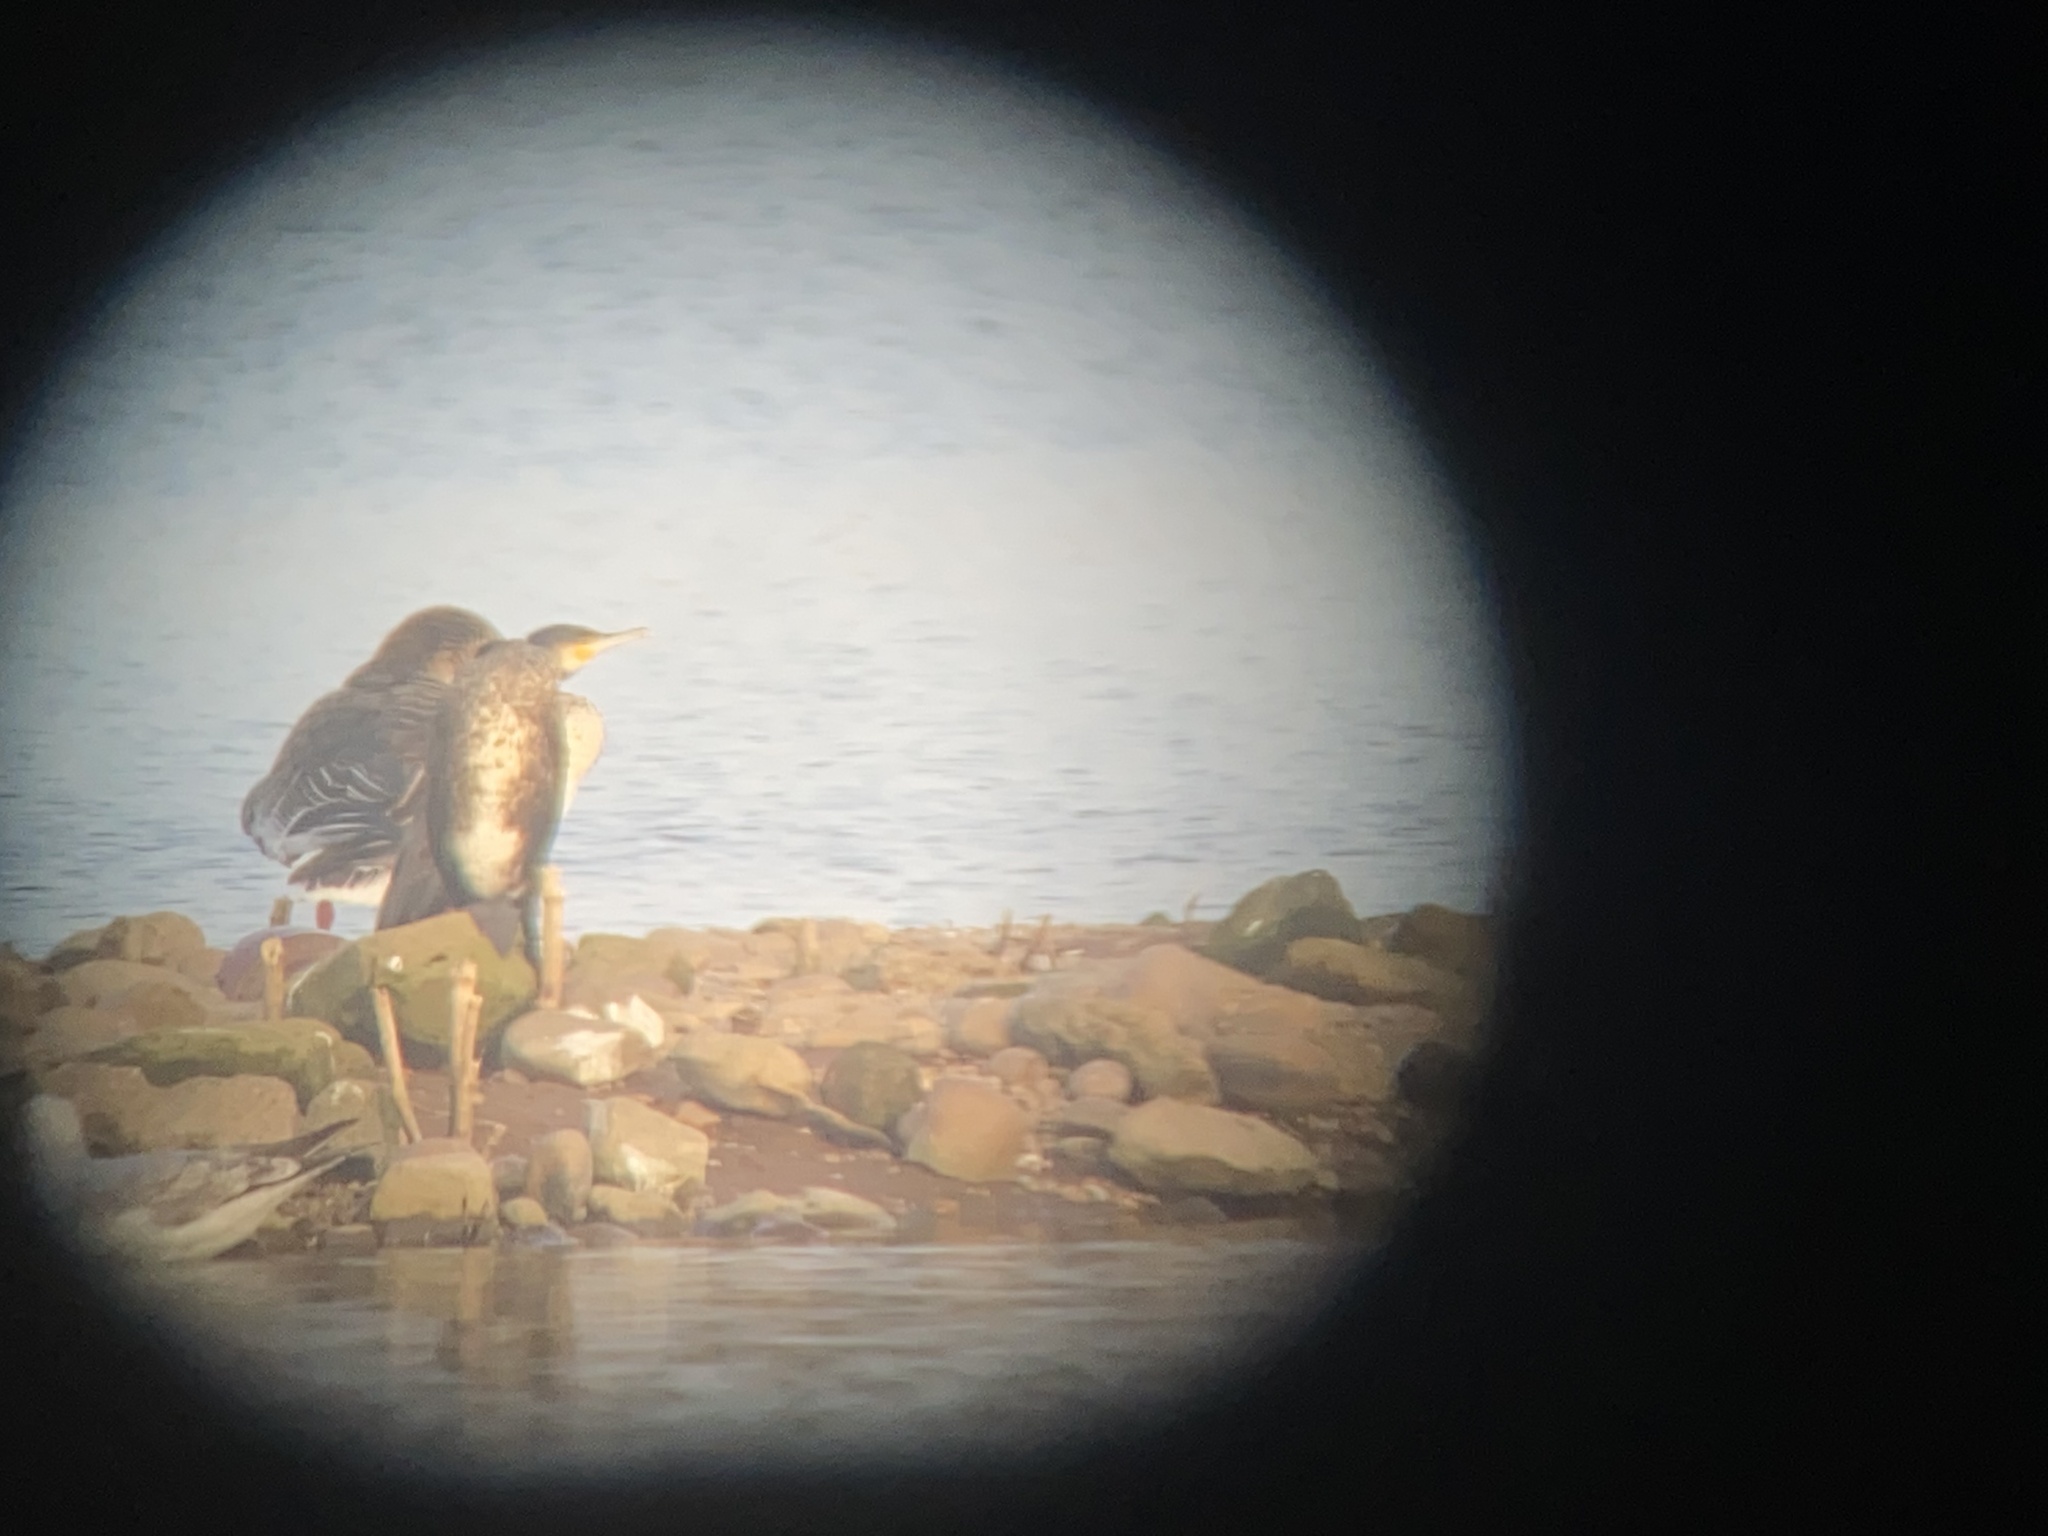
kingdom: Animalia
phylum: Chordata
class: Aves
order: Anseriformes
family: Anatidae
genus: Anser
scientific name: Anser anser
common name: Greylag goose
